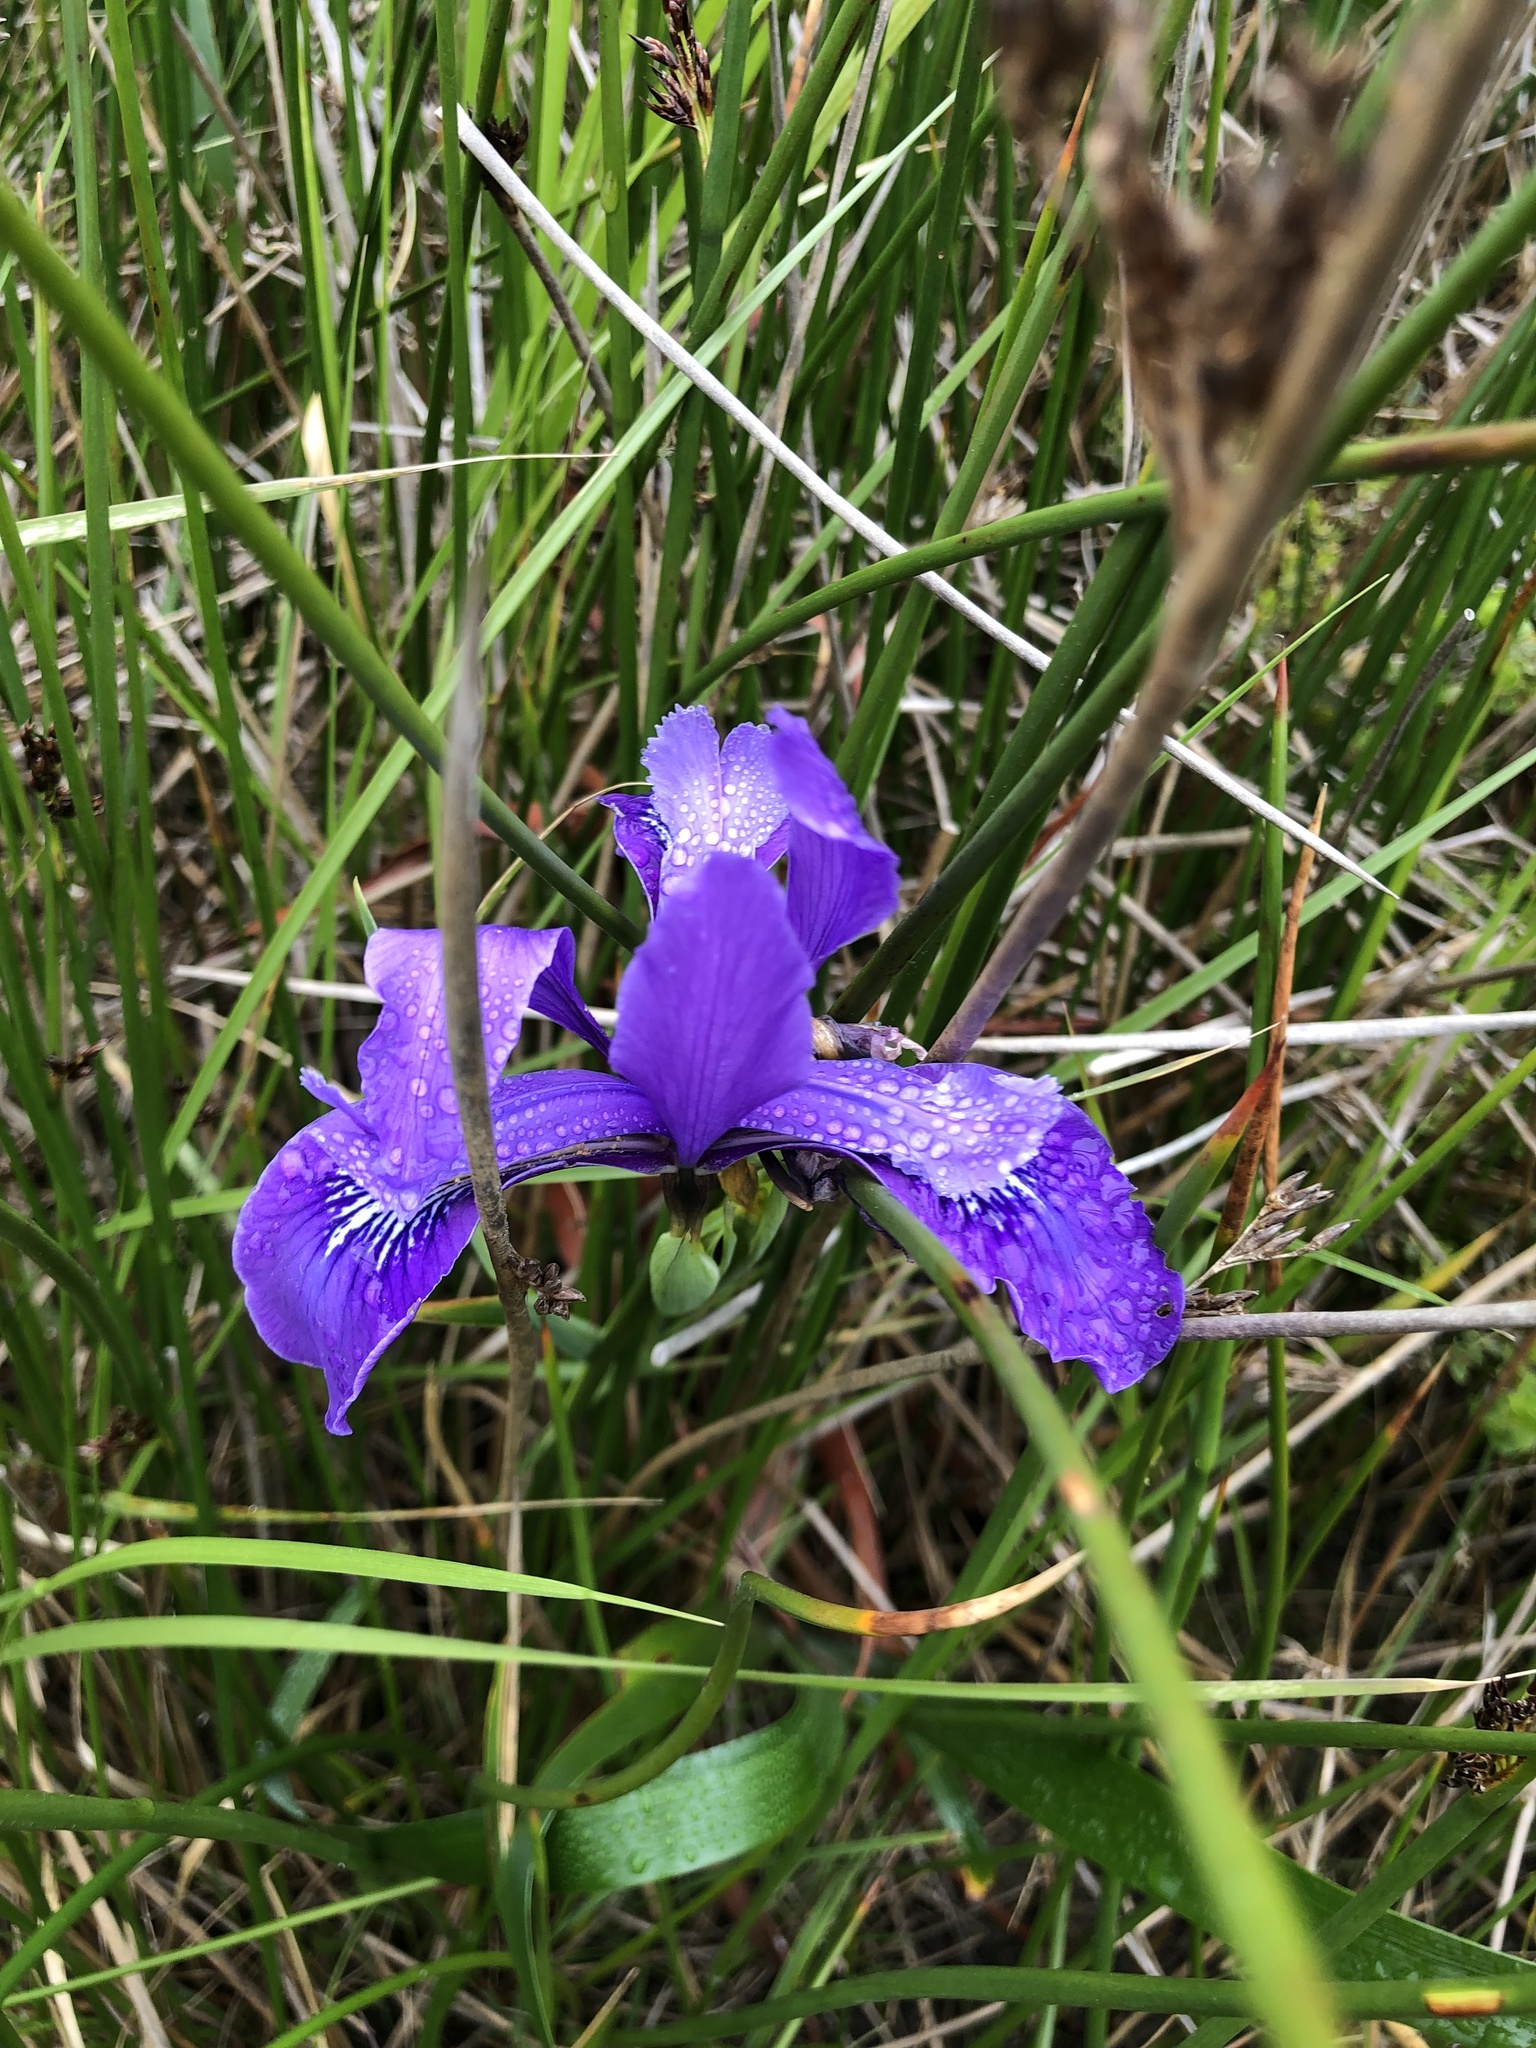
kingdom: Plantae
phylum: Tracheophyta
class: Liliopsida
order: Asparagales
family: Iridaceae
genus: Iris
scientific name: Iris douglasiana
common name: Marin iris
